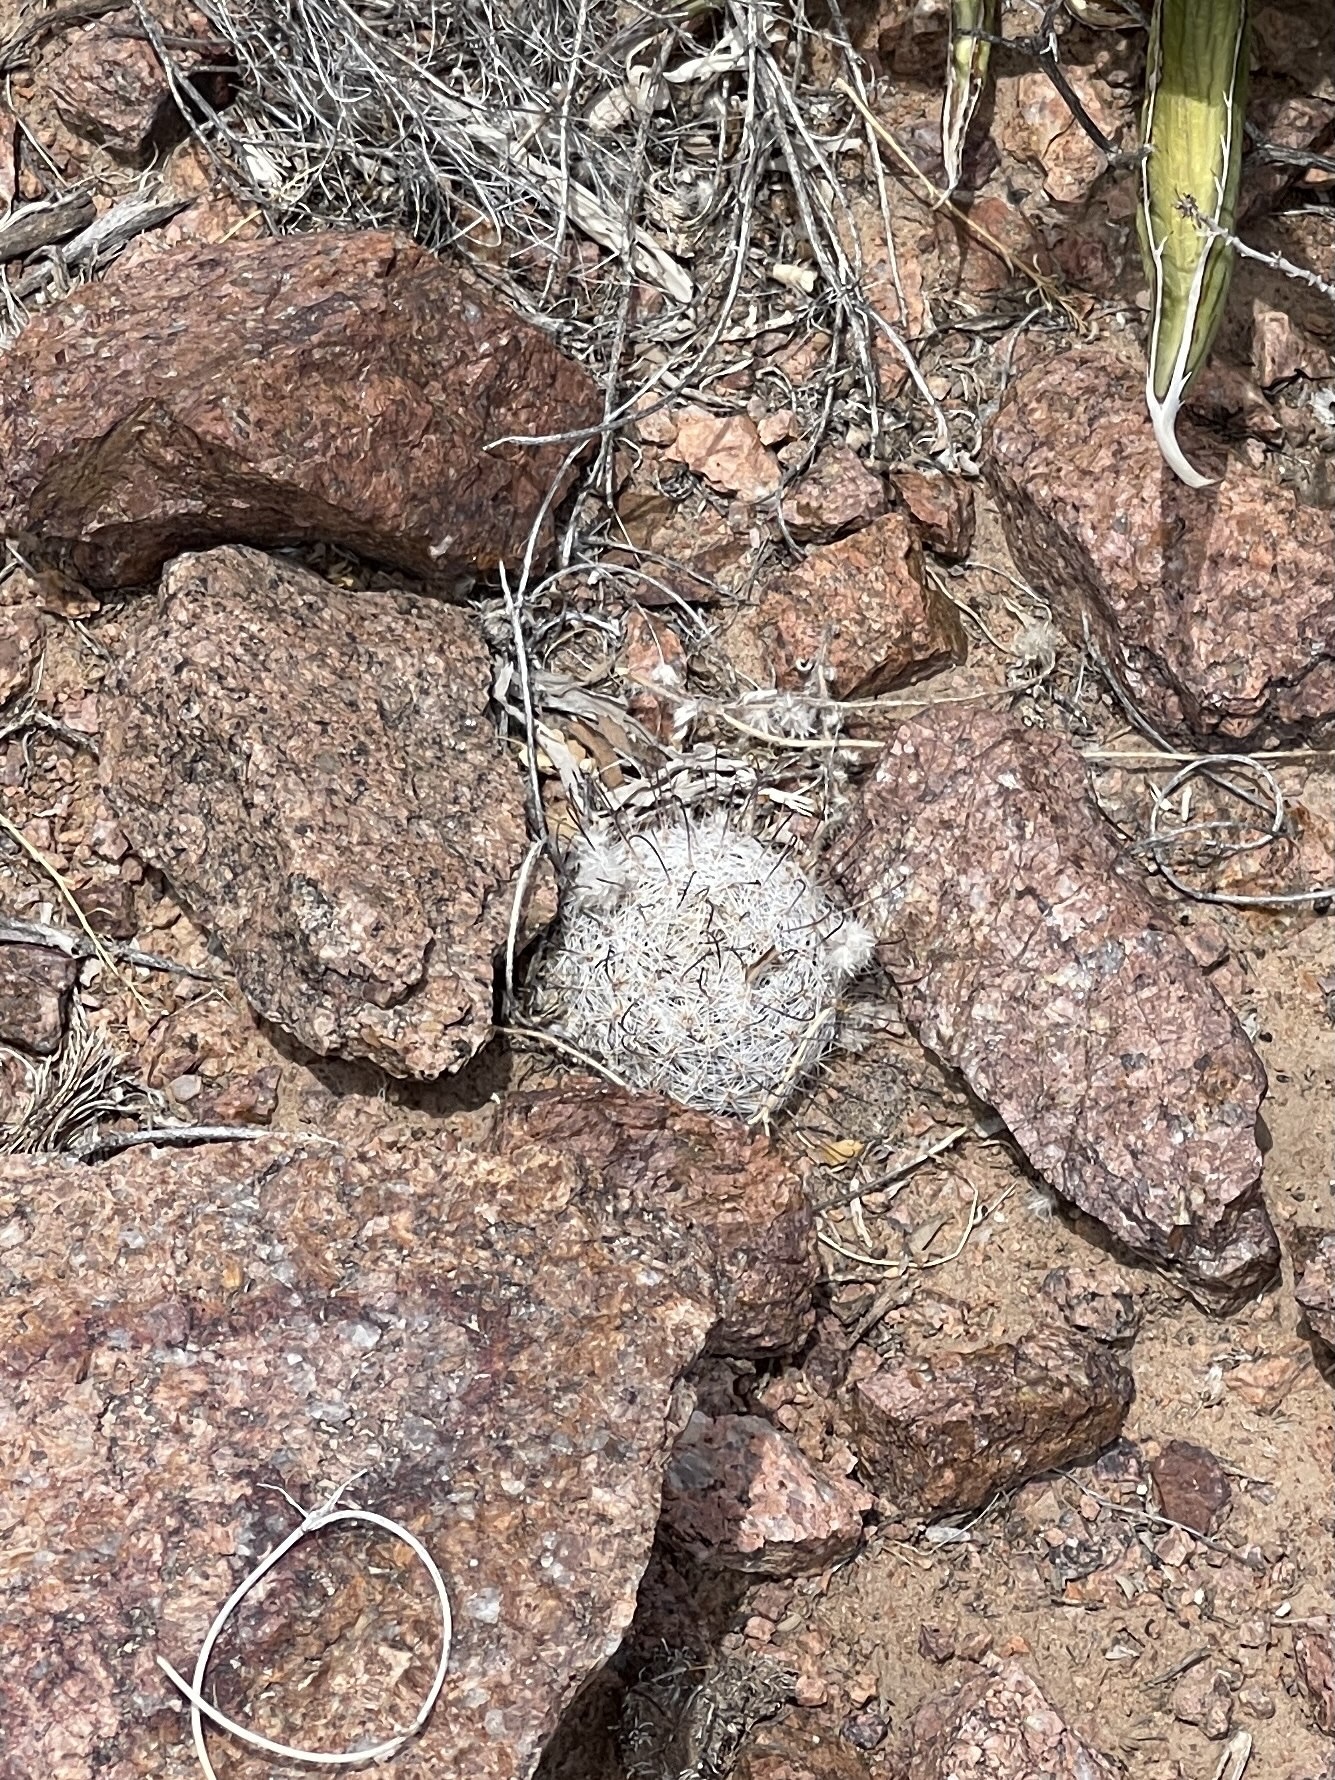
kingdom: Plantae
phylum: Tracheophyta
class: Magnoliopsida
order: Caryophyllales
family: Cactaceae
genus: Cochemiea
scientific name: Cochemiea grahamii
